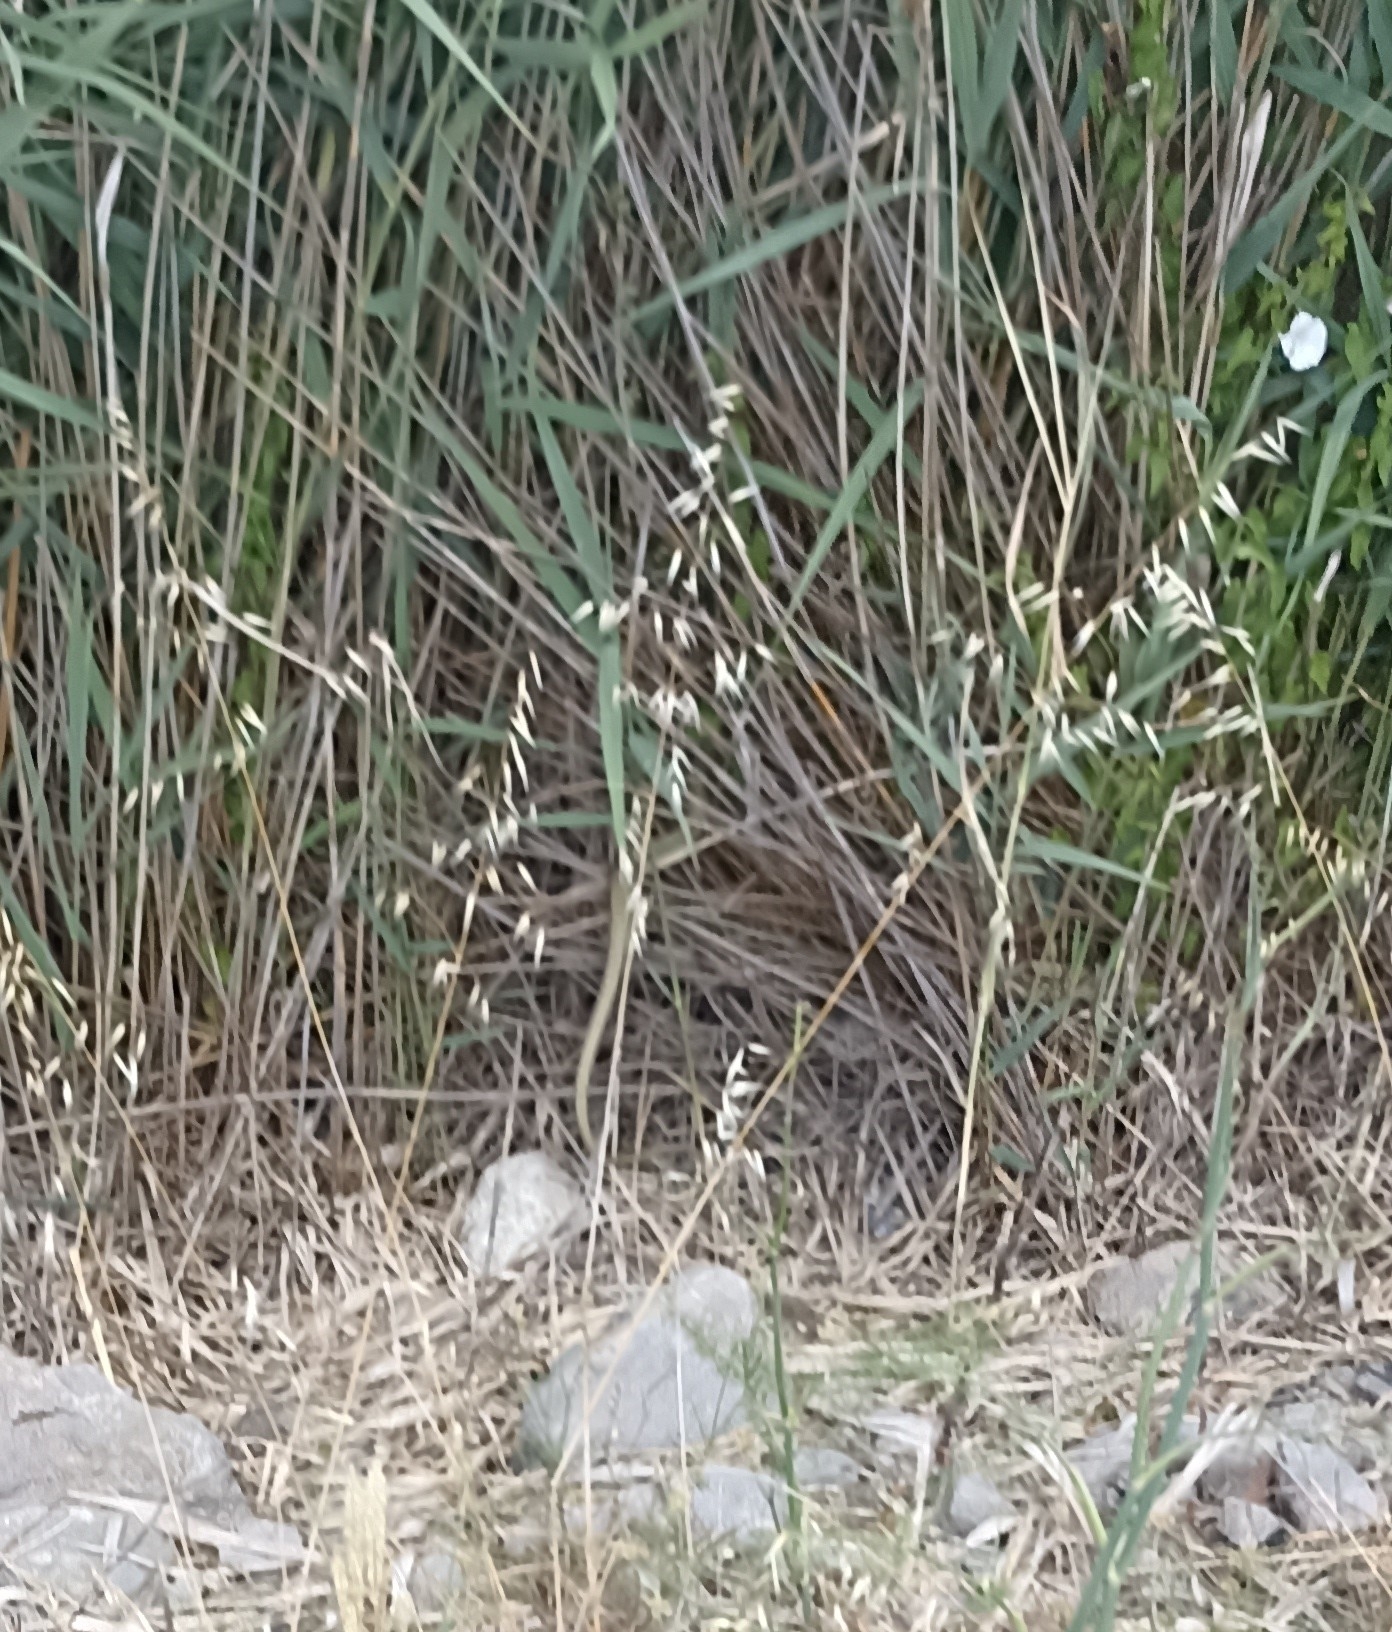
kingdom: Animalia
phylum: Chordata
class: Squamata
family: Psammophiidae
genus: Malpolon
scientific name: Malpolon monspessulanus
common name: Montpellier snake
